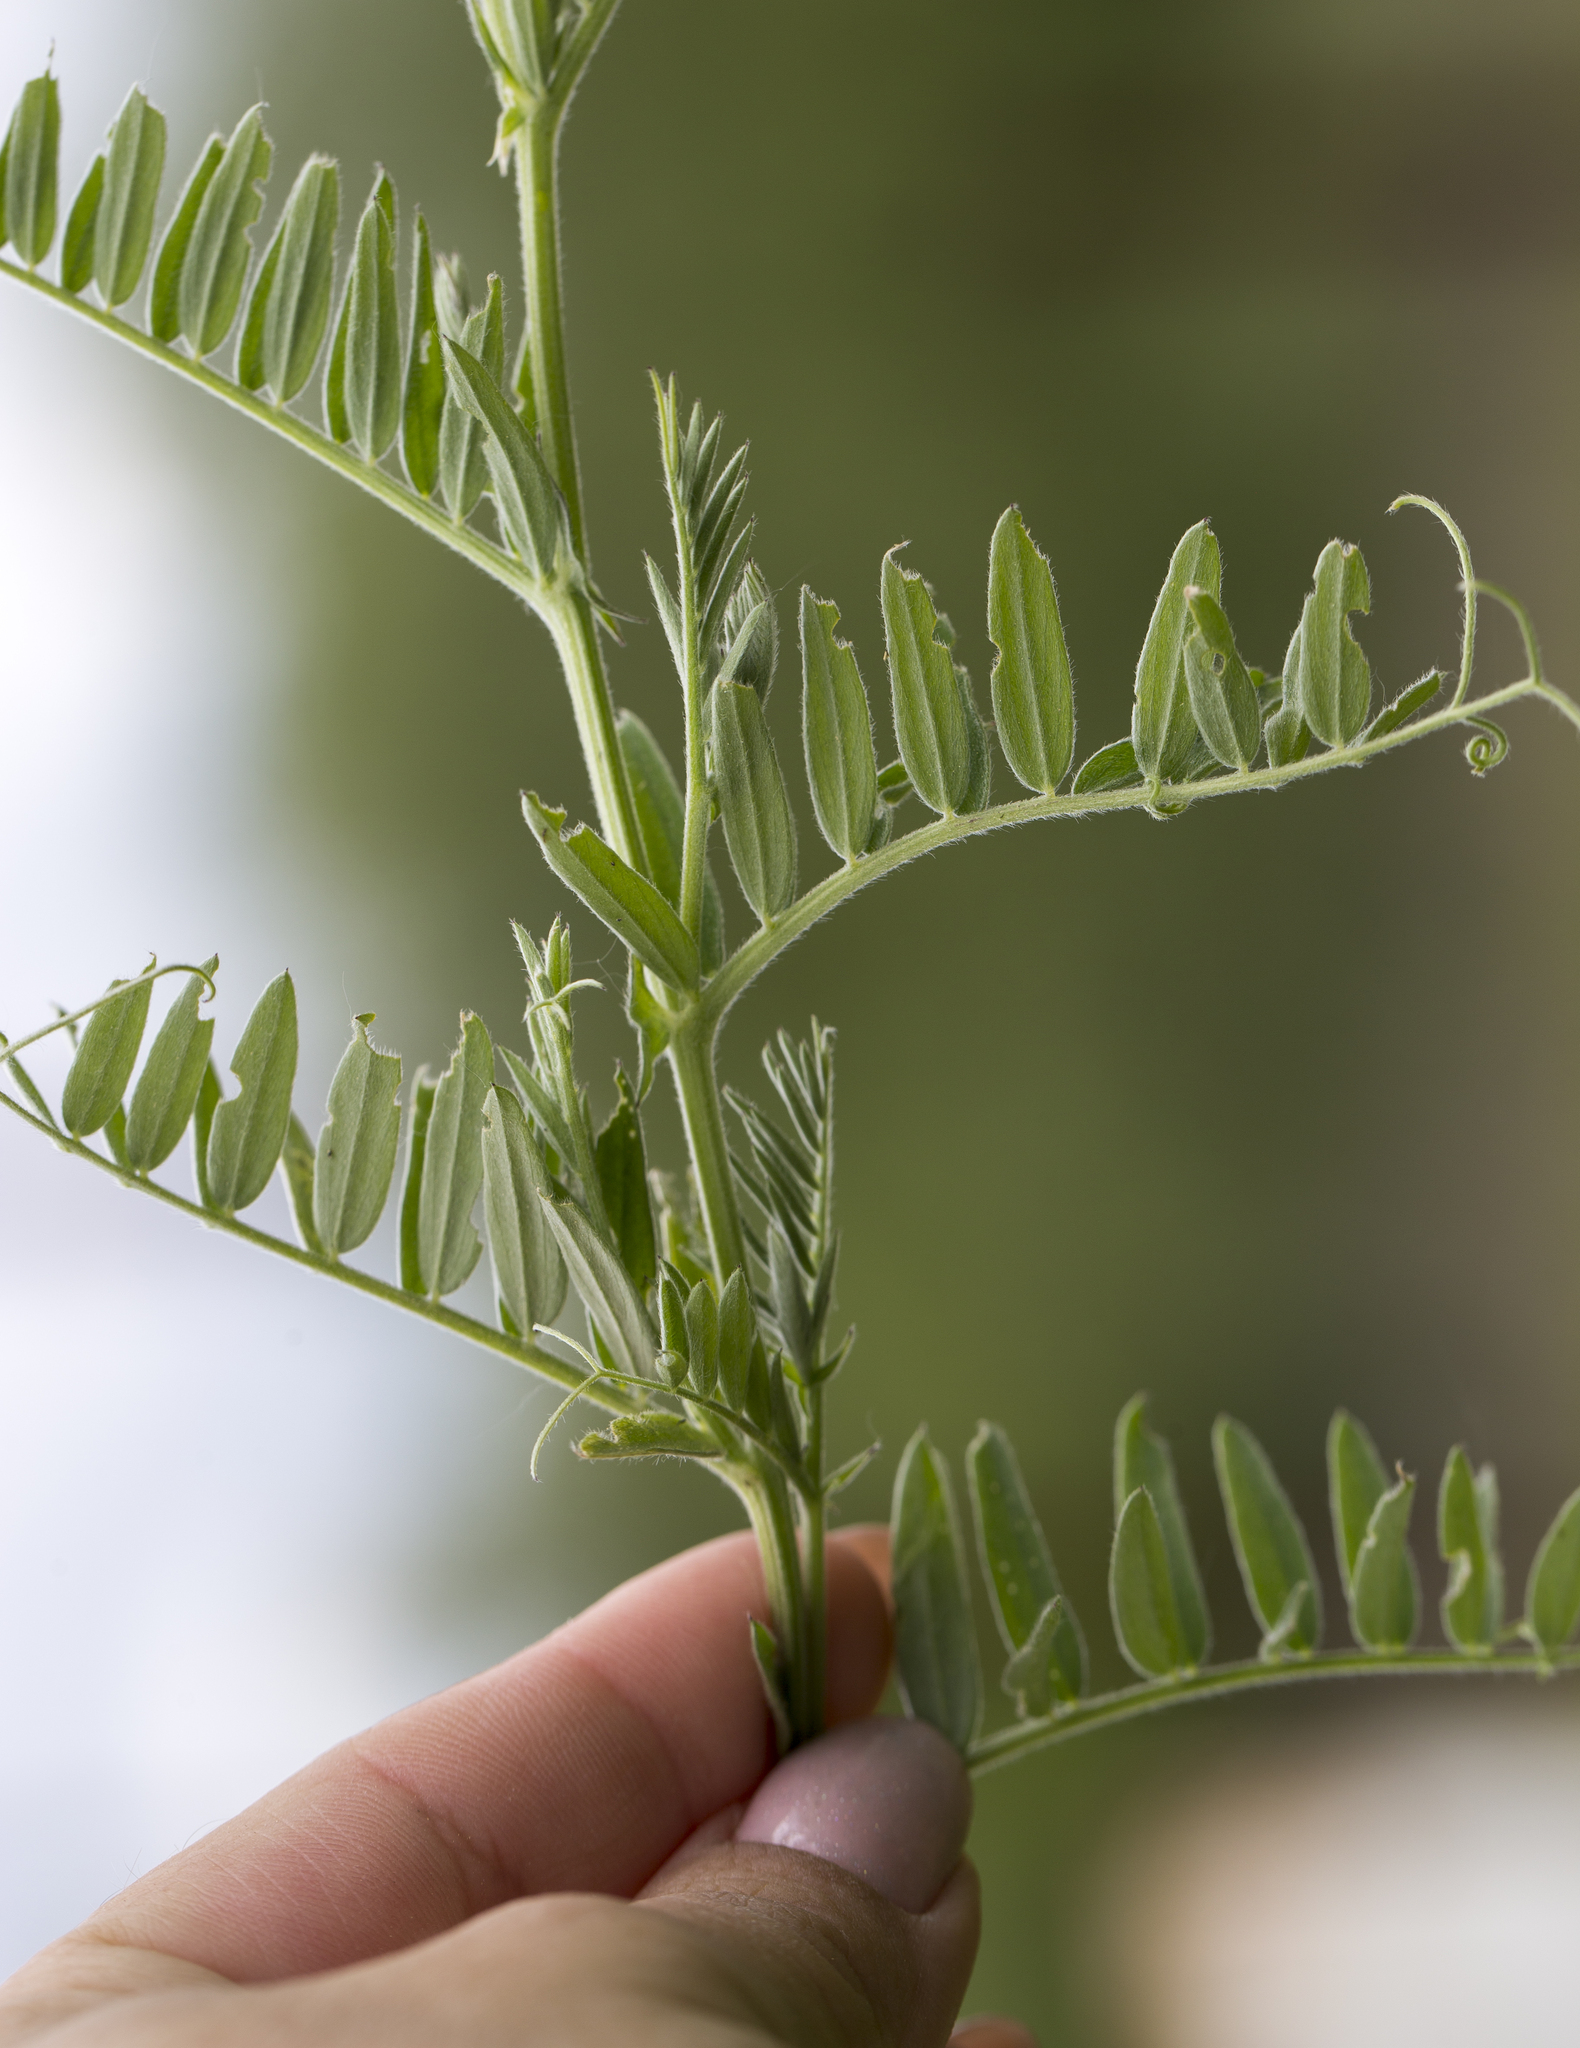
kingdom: Plantae
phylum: Tracheophyta
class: Magnoliopsida
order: Fabales
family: Fabaceae
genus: Vicia
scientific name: Vicia cracca
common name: Bird vetch
